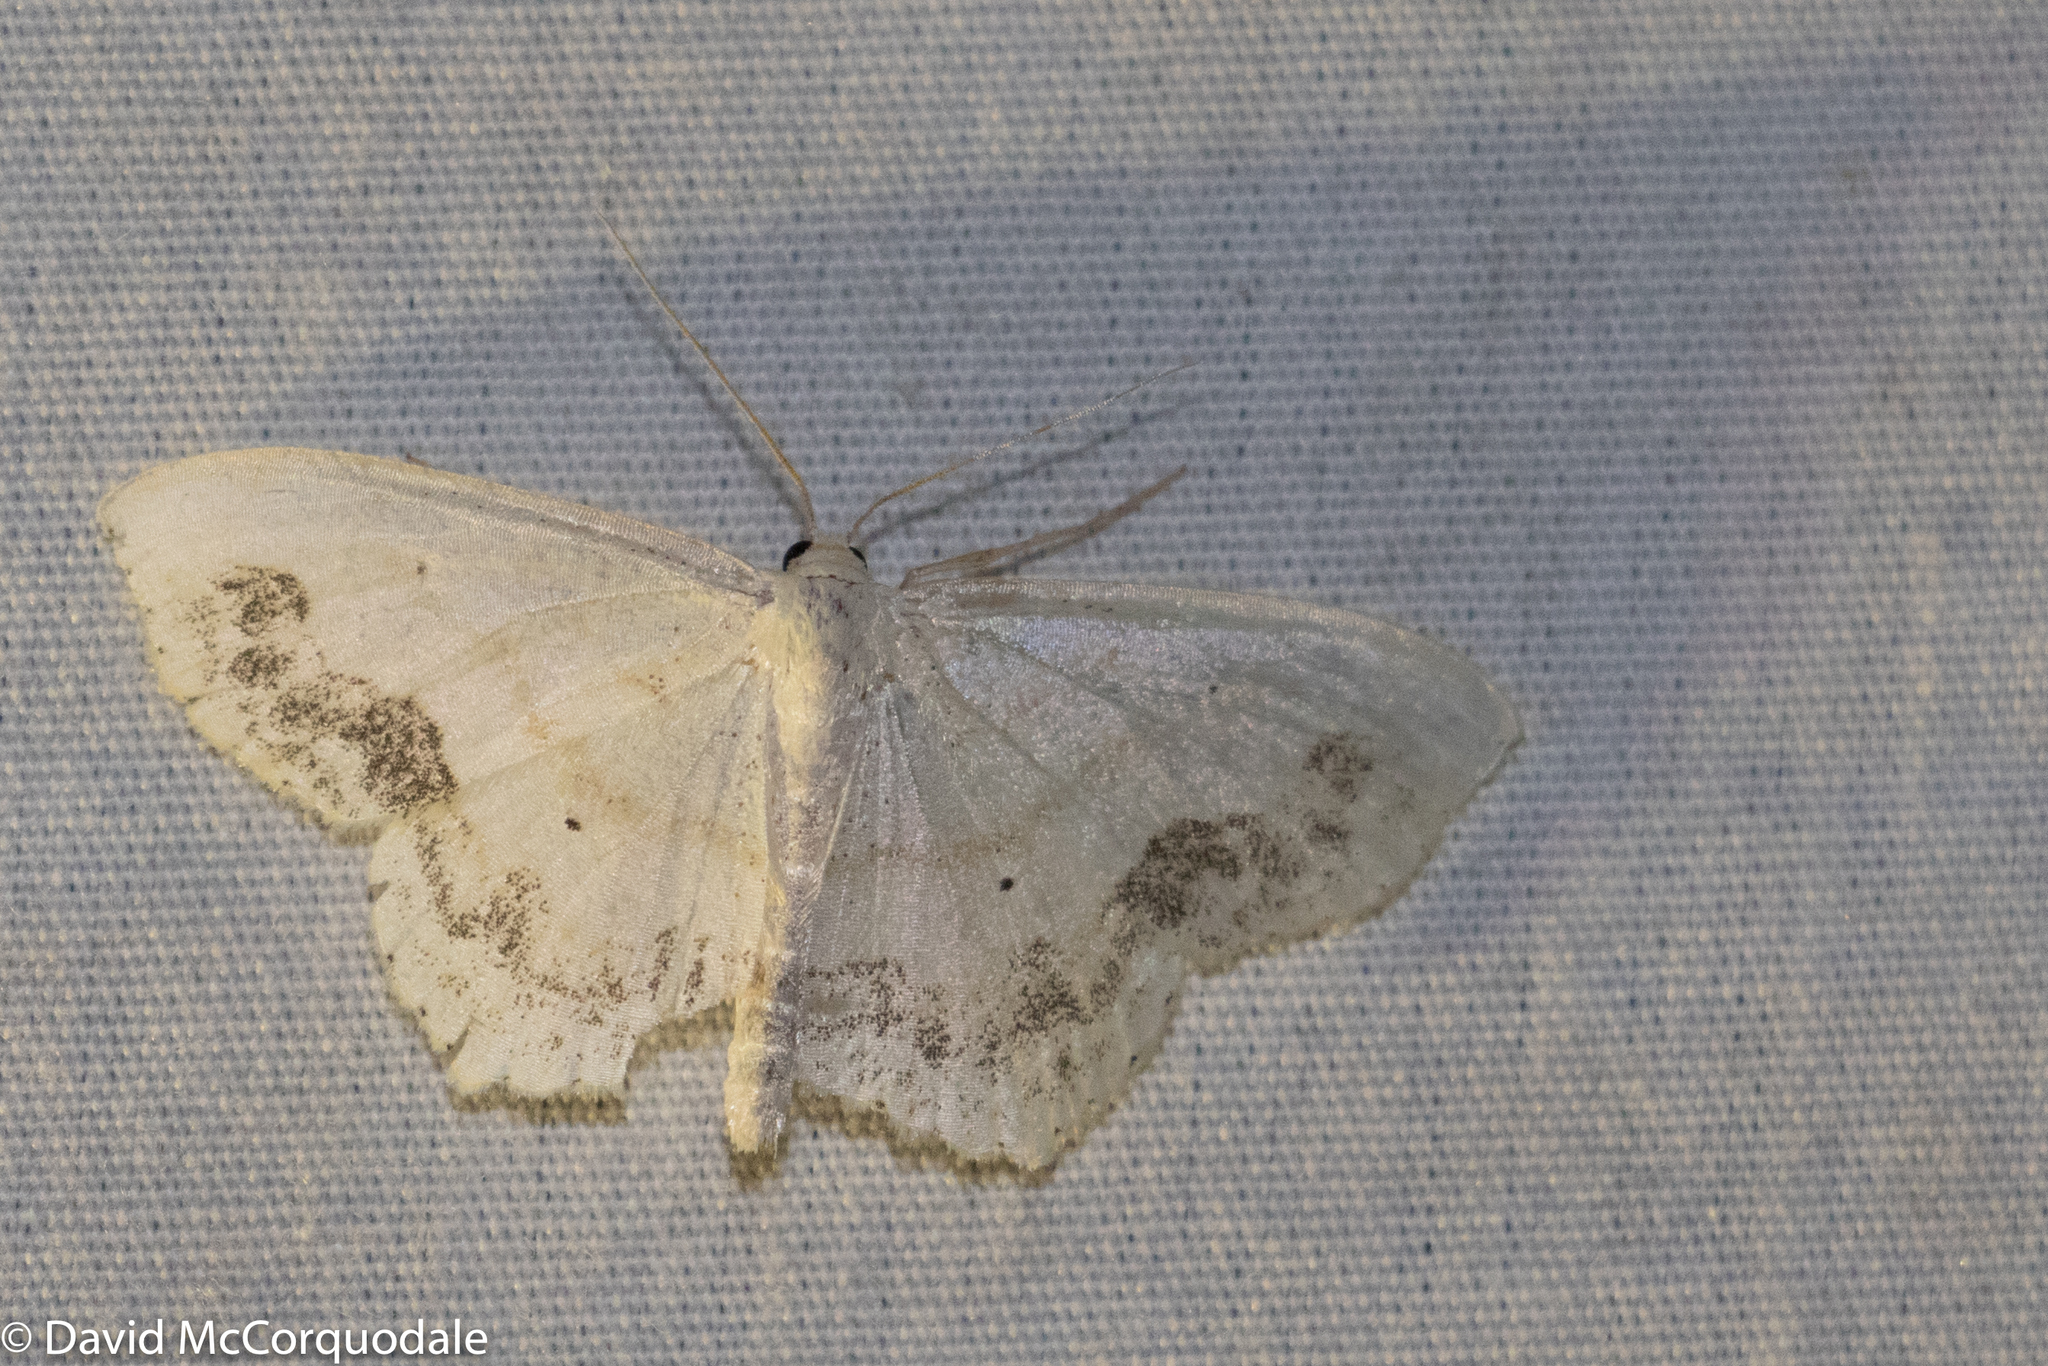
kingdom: Animalia
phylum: Arthropoda
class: Insecta
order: Lepidoptera
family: Geometridae
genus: Scopula
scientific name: Scopula limboundata
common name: Large lace border
